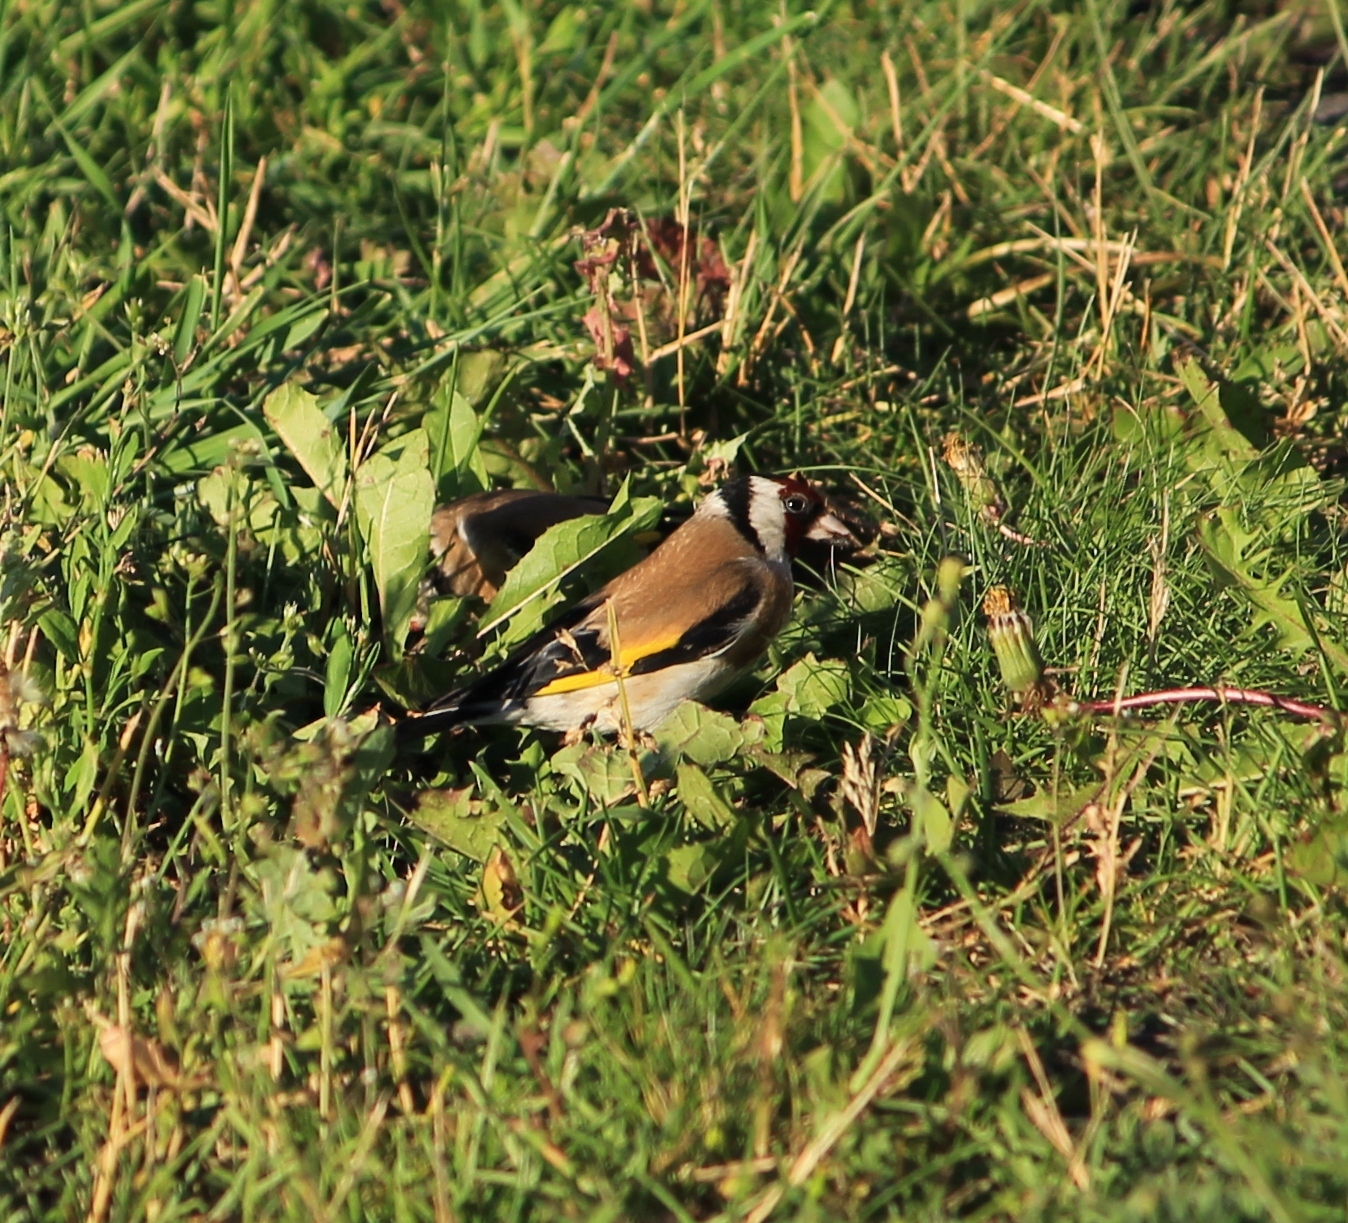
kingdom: Animalia
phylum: Chordata
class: Aves
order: Passeriformes
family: Fringillidae
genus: Carduelis
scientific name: Carduelis carduelis
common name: European goldfinch
